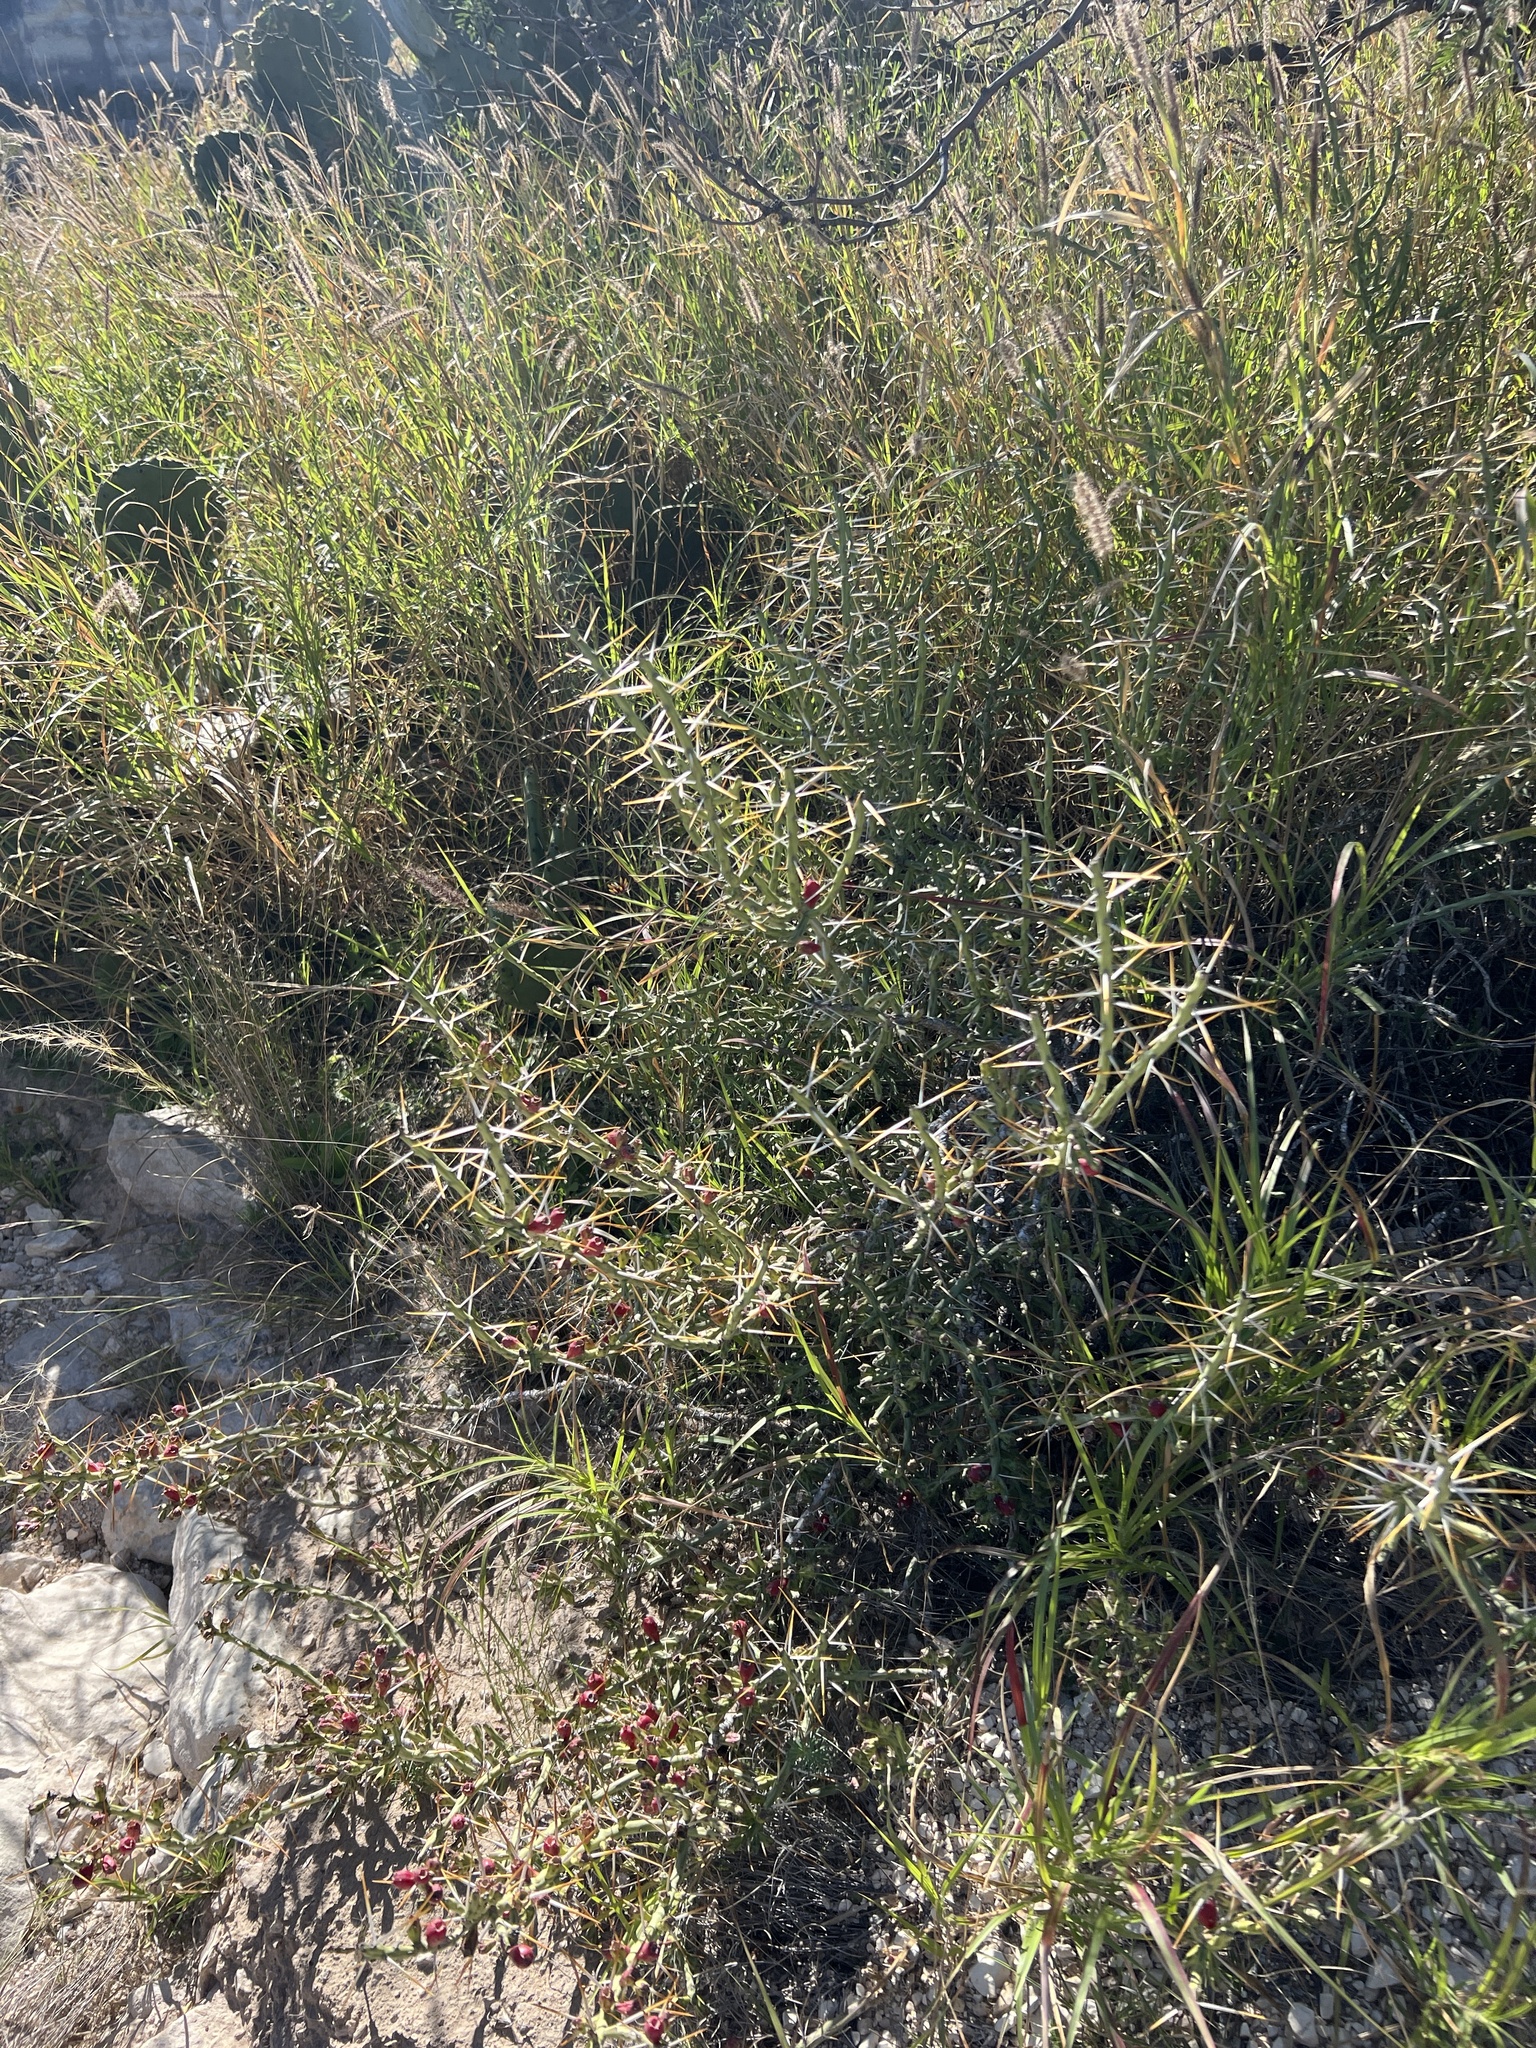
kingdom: Plantae
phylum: Tracheophyta
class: Magnoliopsida
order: Caryophyllales
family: Cactaceae
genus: Cylindropuntia
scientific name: Cylindropuntia leptocaulis
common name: Christmas cactus
